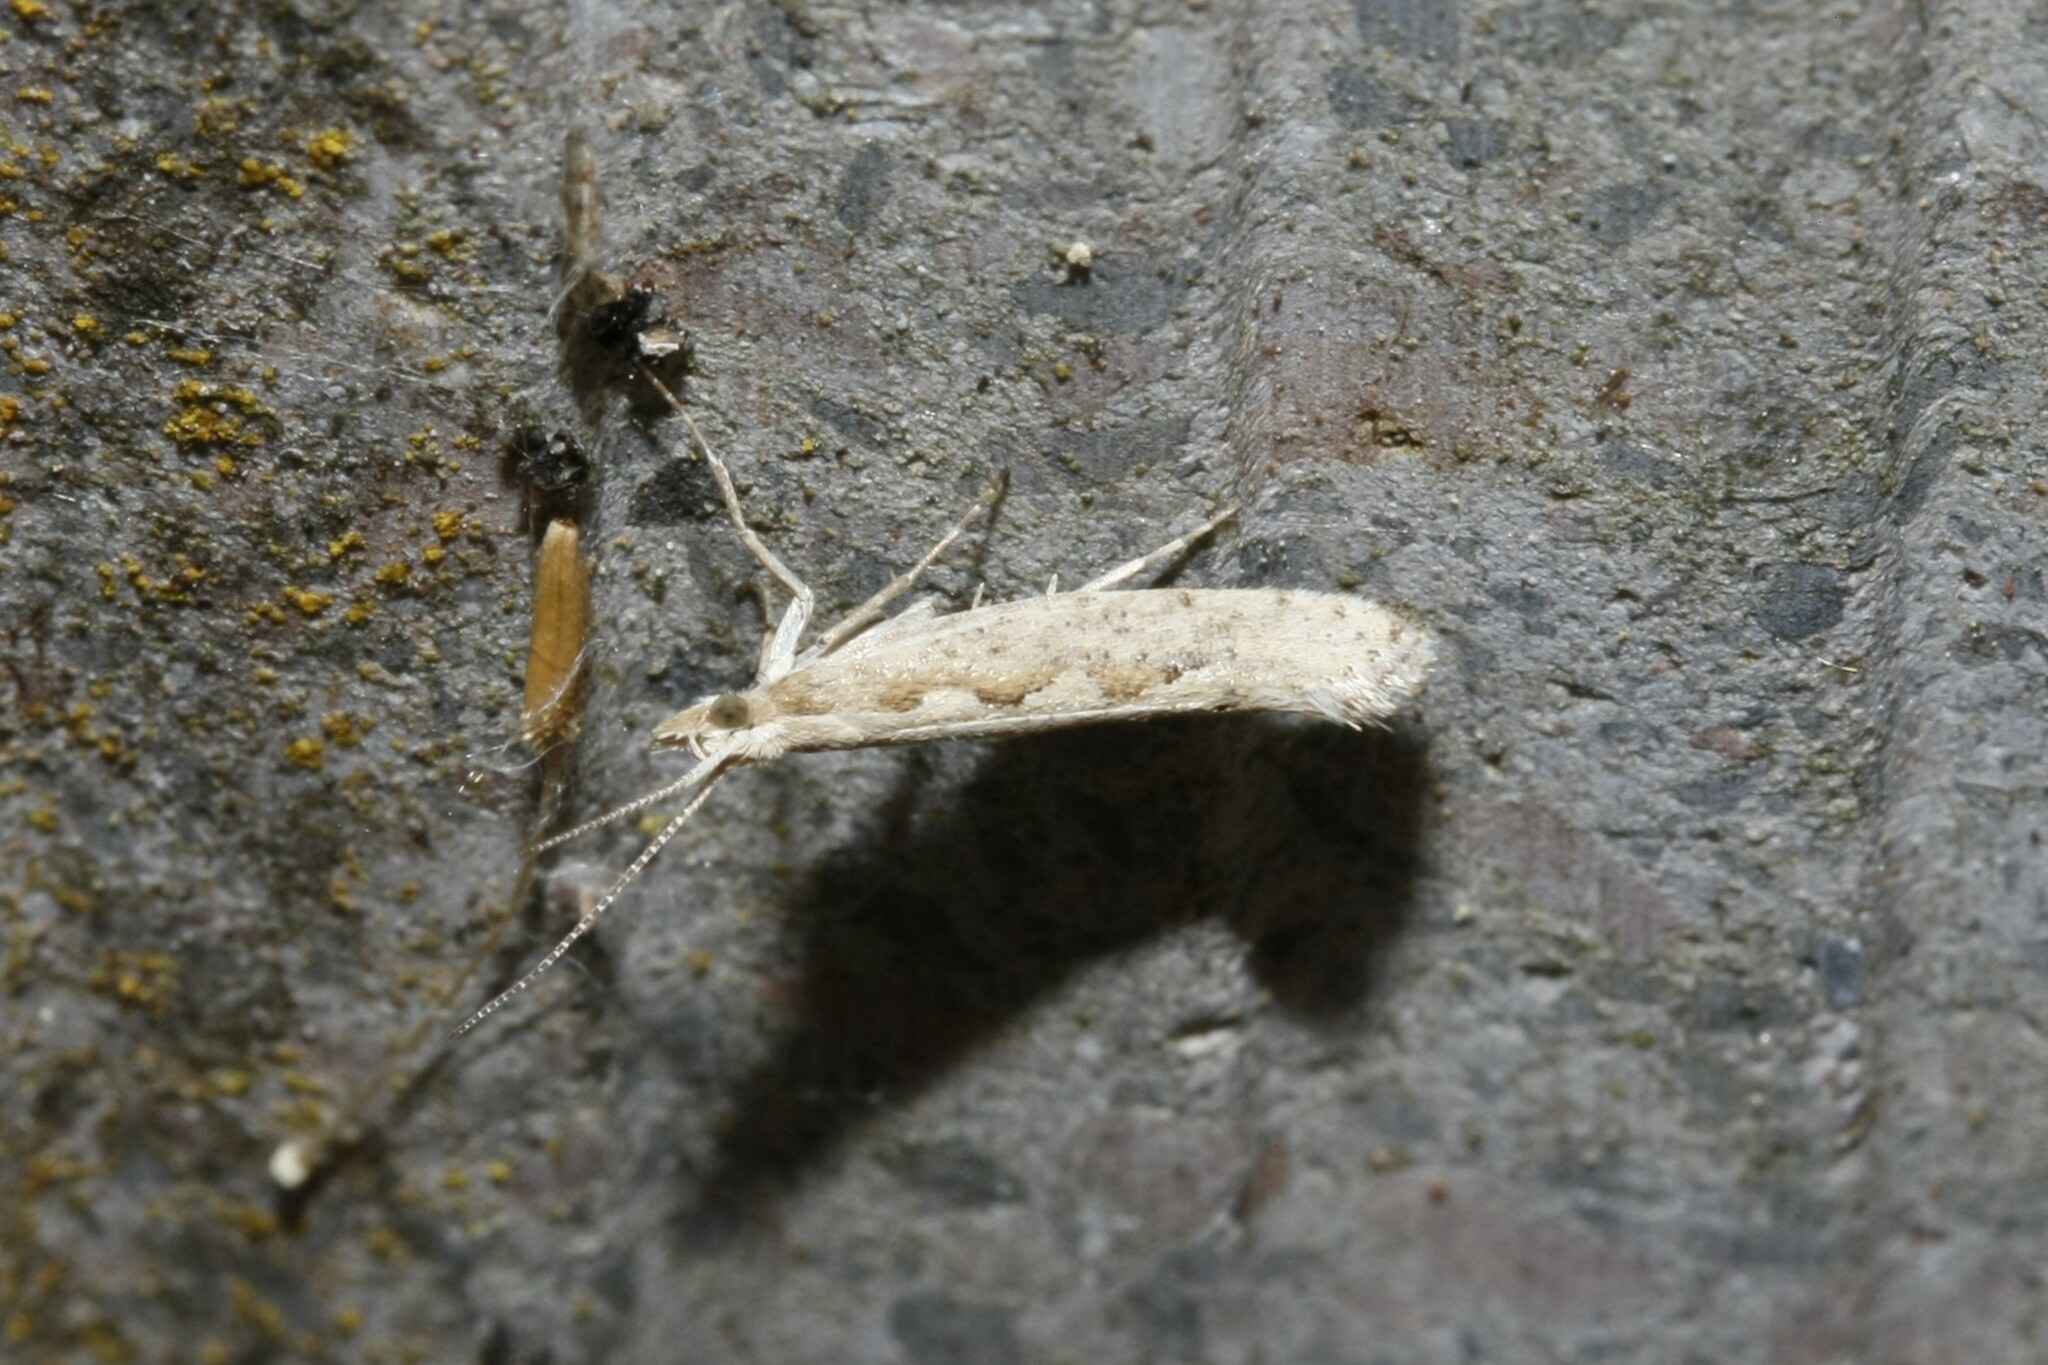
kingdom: Animalia
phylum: Arthropoda
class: Insecta
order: Lepidoptera
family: Plutellidae
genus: Plutella
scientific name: Plutella xylostella
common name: Diamond-back moth
